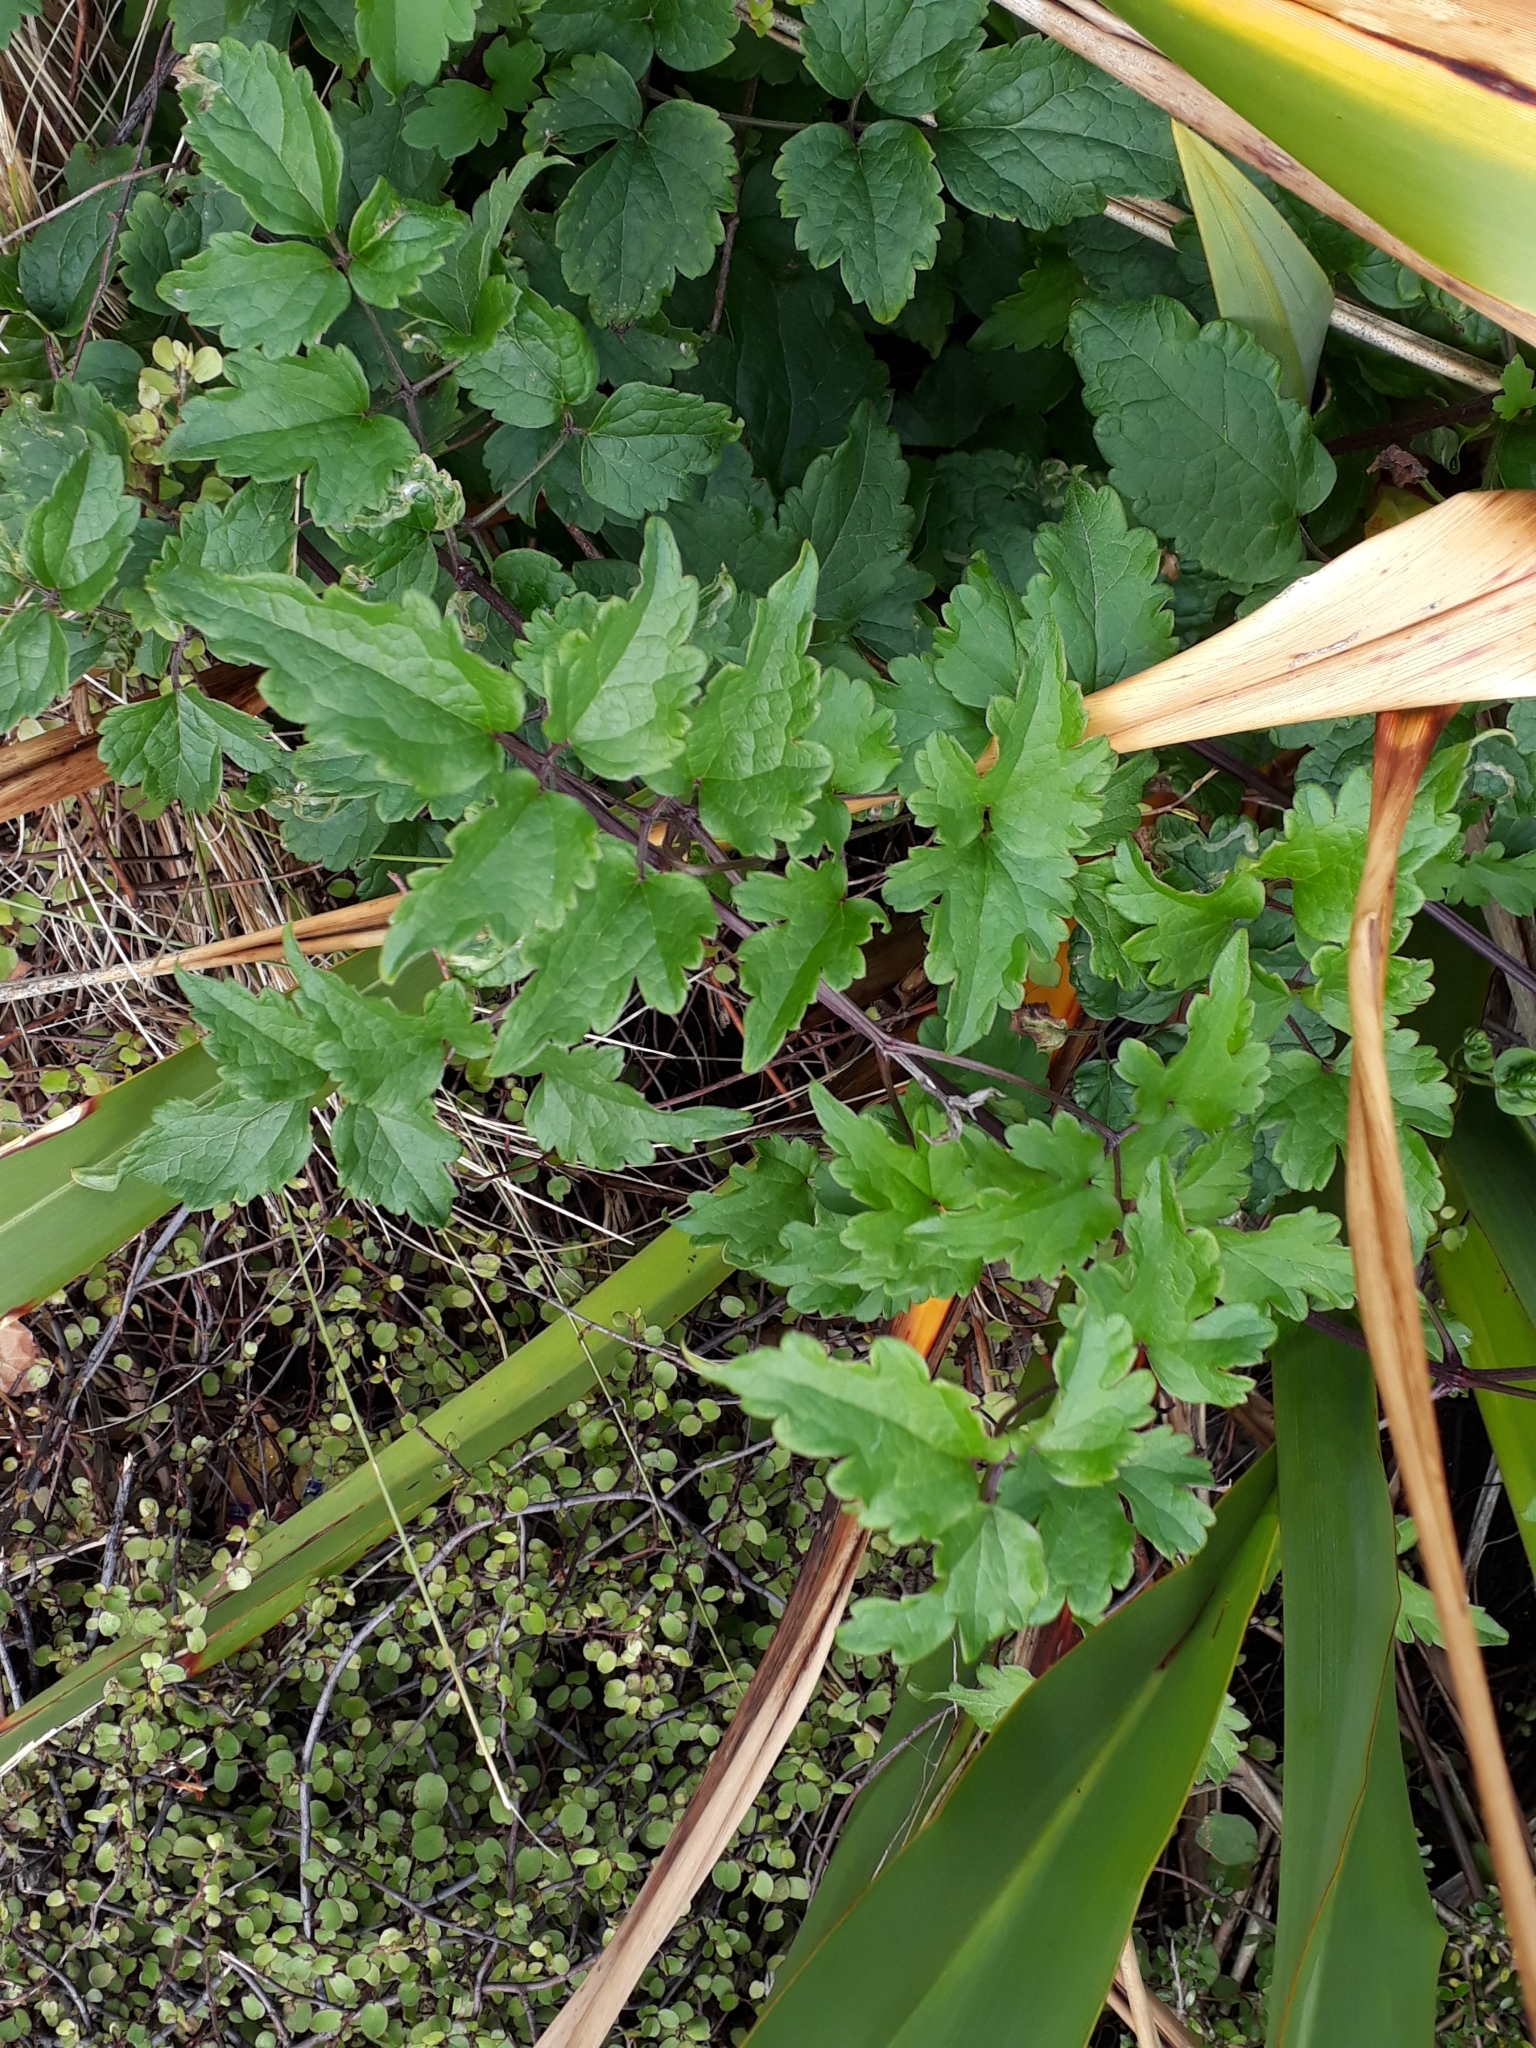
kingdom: Plantae
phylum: Tracheophyta
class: Magnoliopsida
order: Ranunculales
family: Ranunculaceae
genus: Clematis
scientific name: Clematis vitalba
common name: Evergreen clematis
